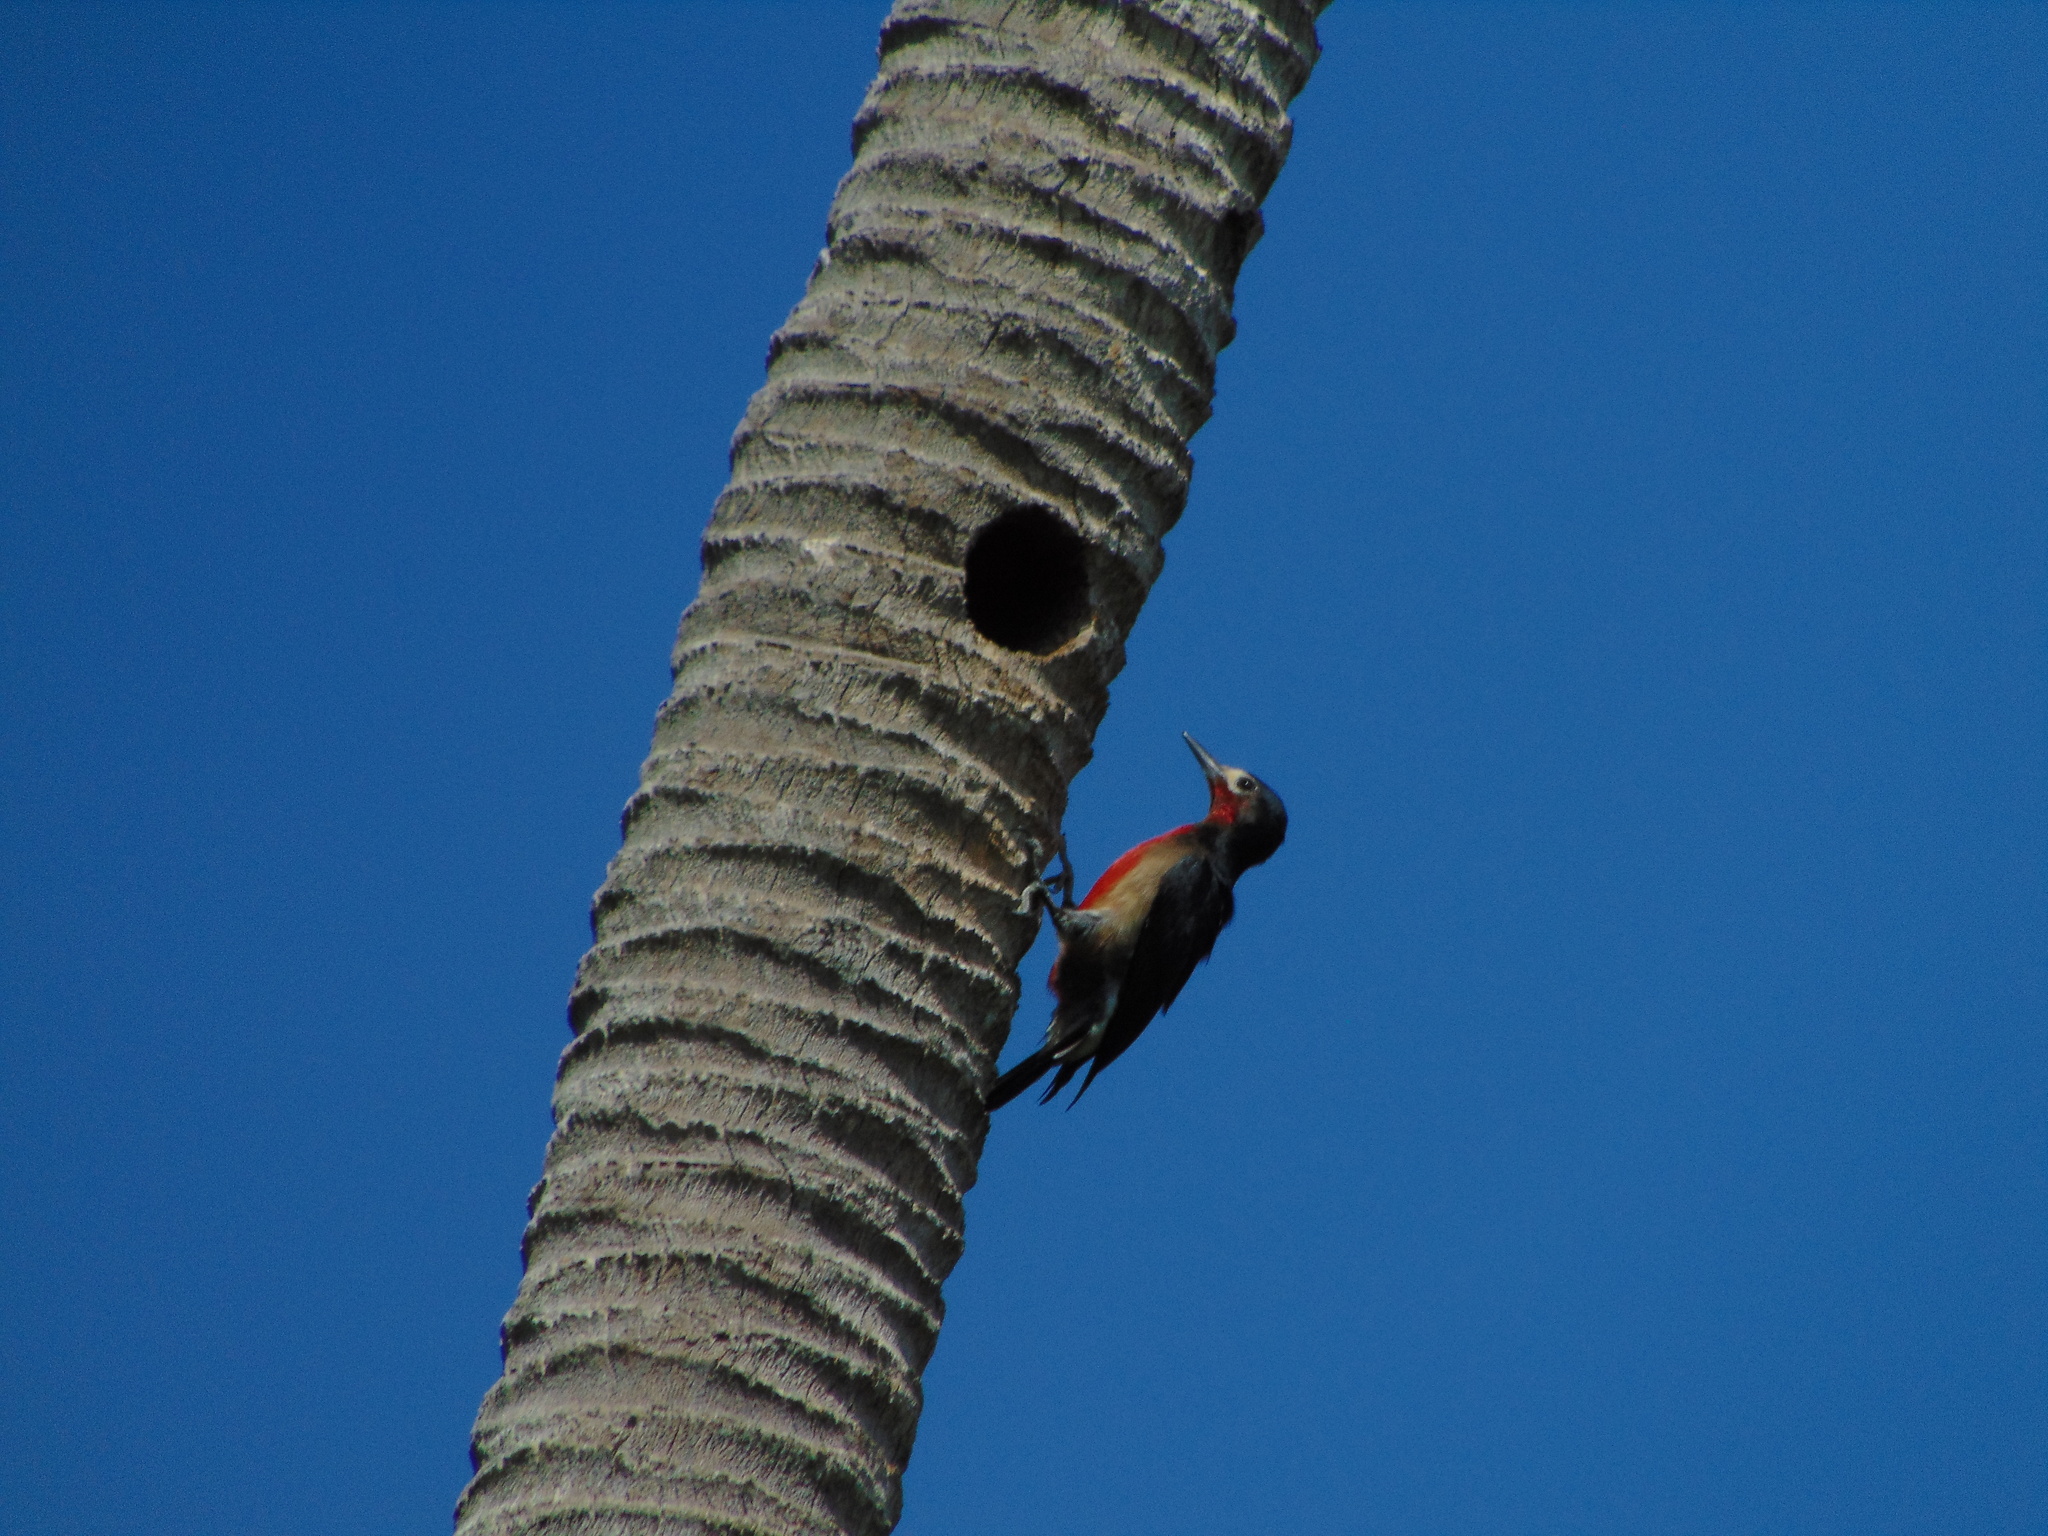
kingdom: Animalia
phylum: Chordata
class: Aves
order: Piciformes
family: Picidae
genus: Melanerpes
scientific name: Melanerpes portoricensis
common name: Puerto rican woodpecker
